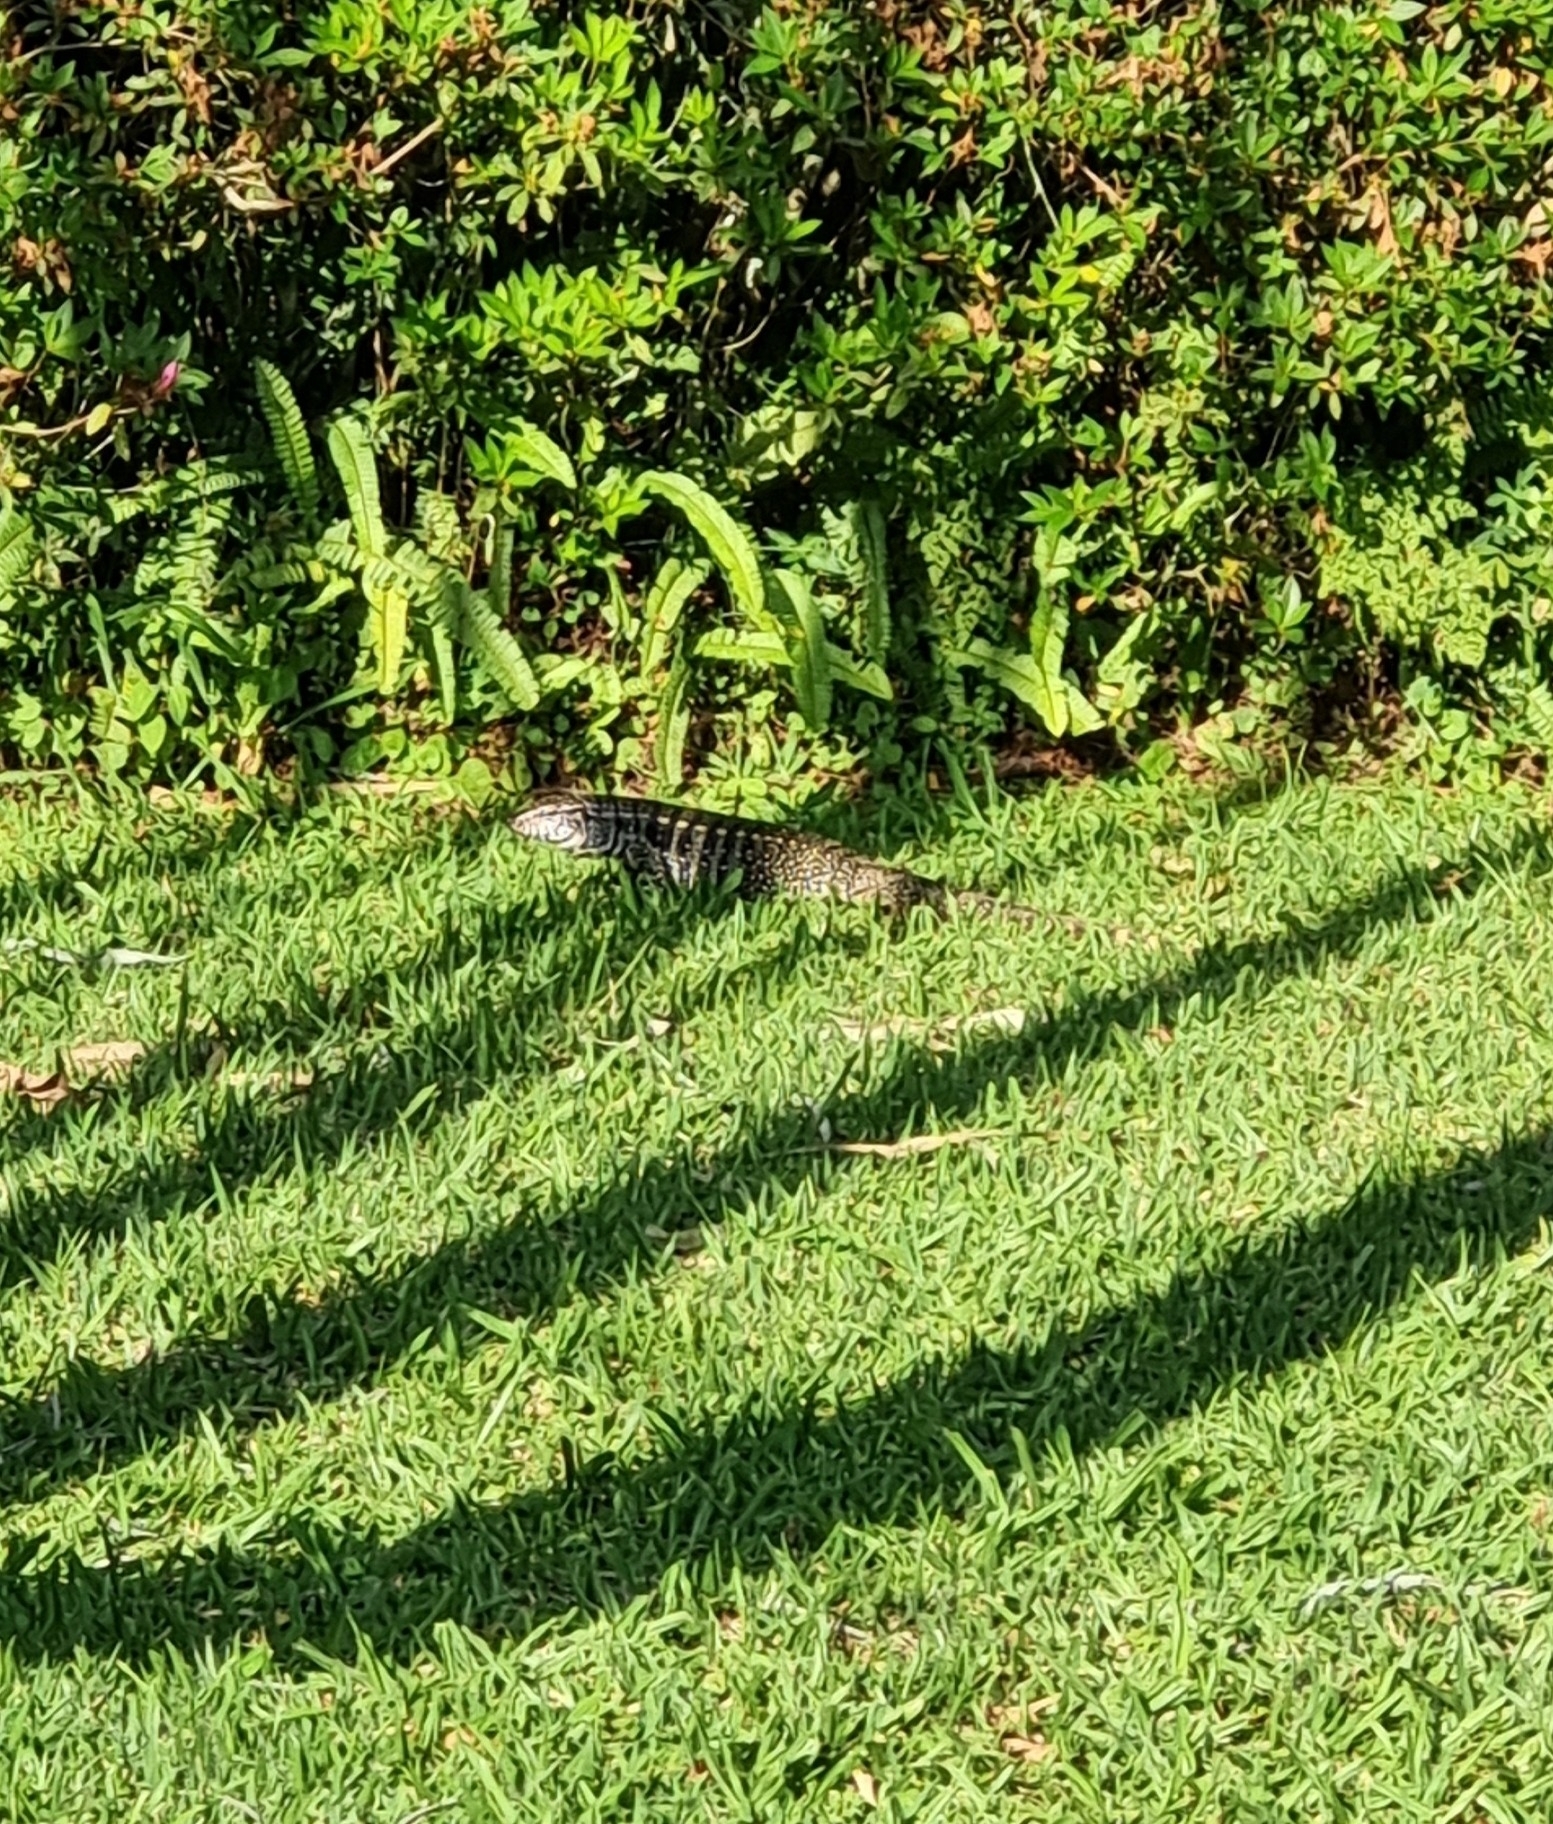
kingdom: Animalia
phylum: Chordata
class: Squamata
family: Teiidae
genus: Salvator
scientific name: Salvator merianae
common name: Argentine black and white tegu
